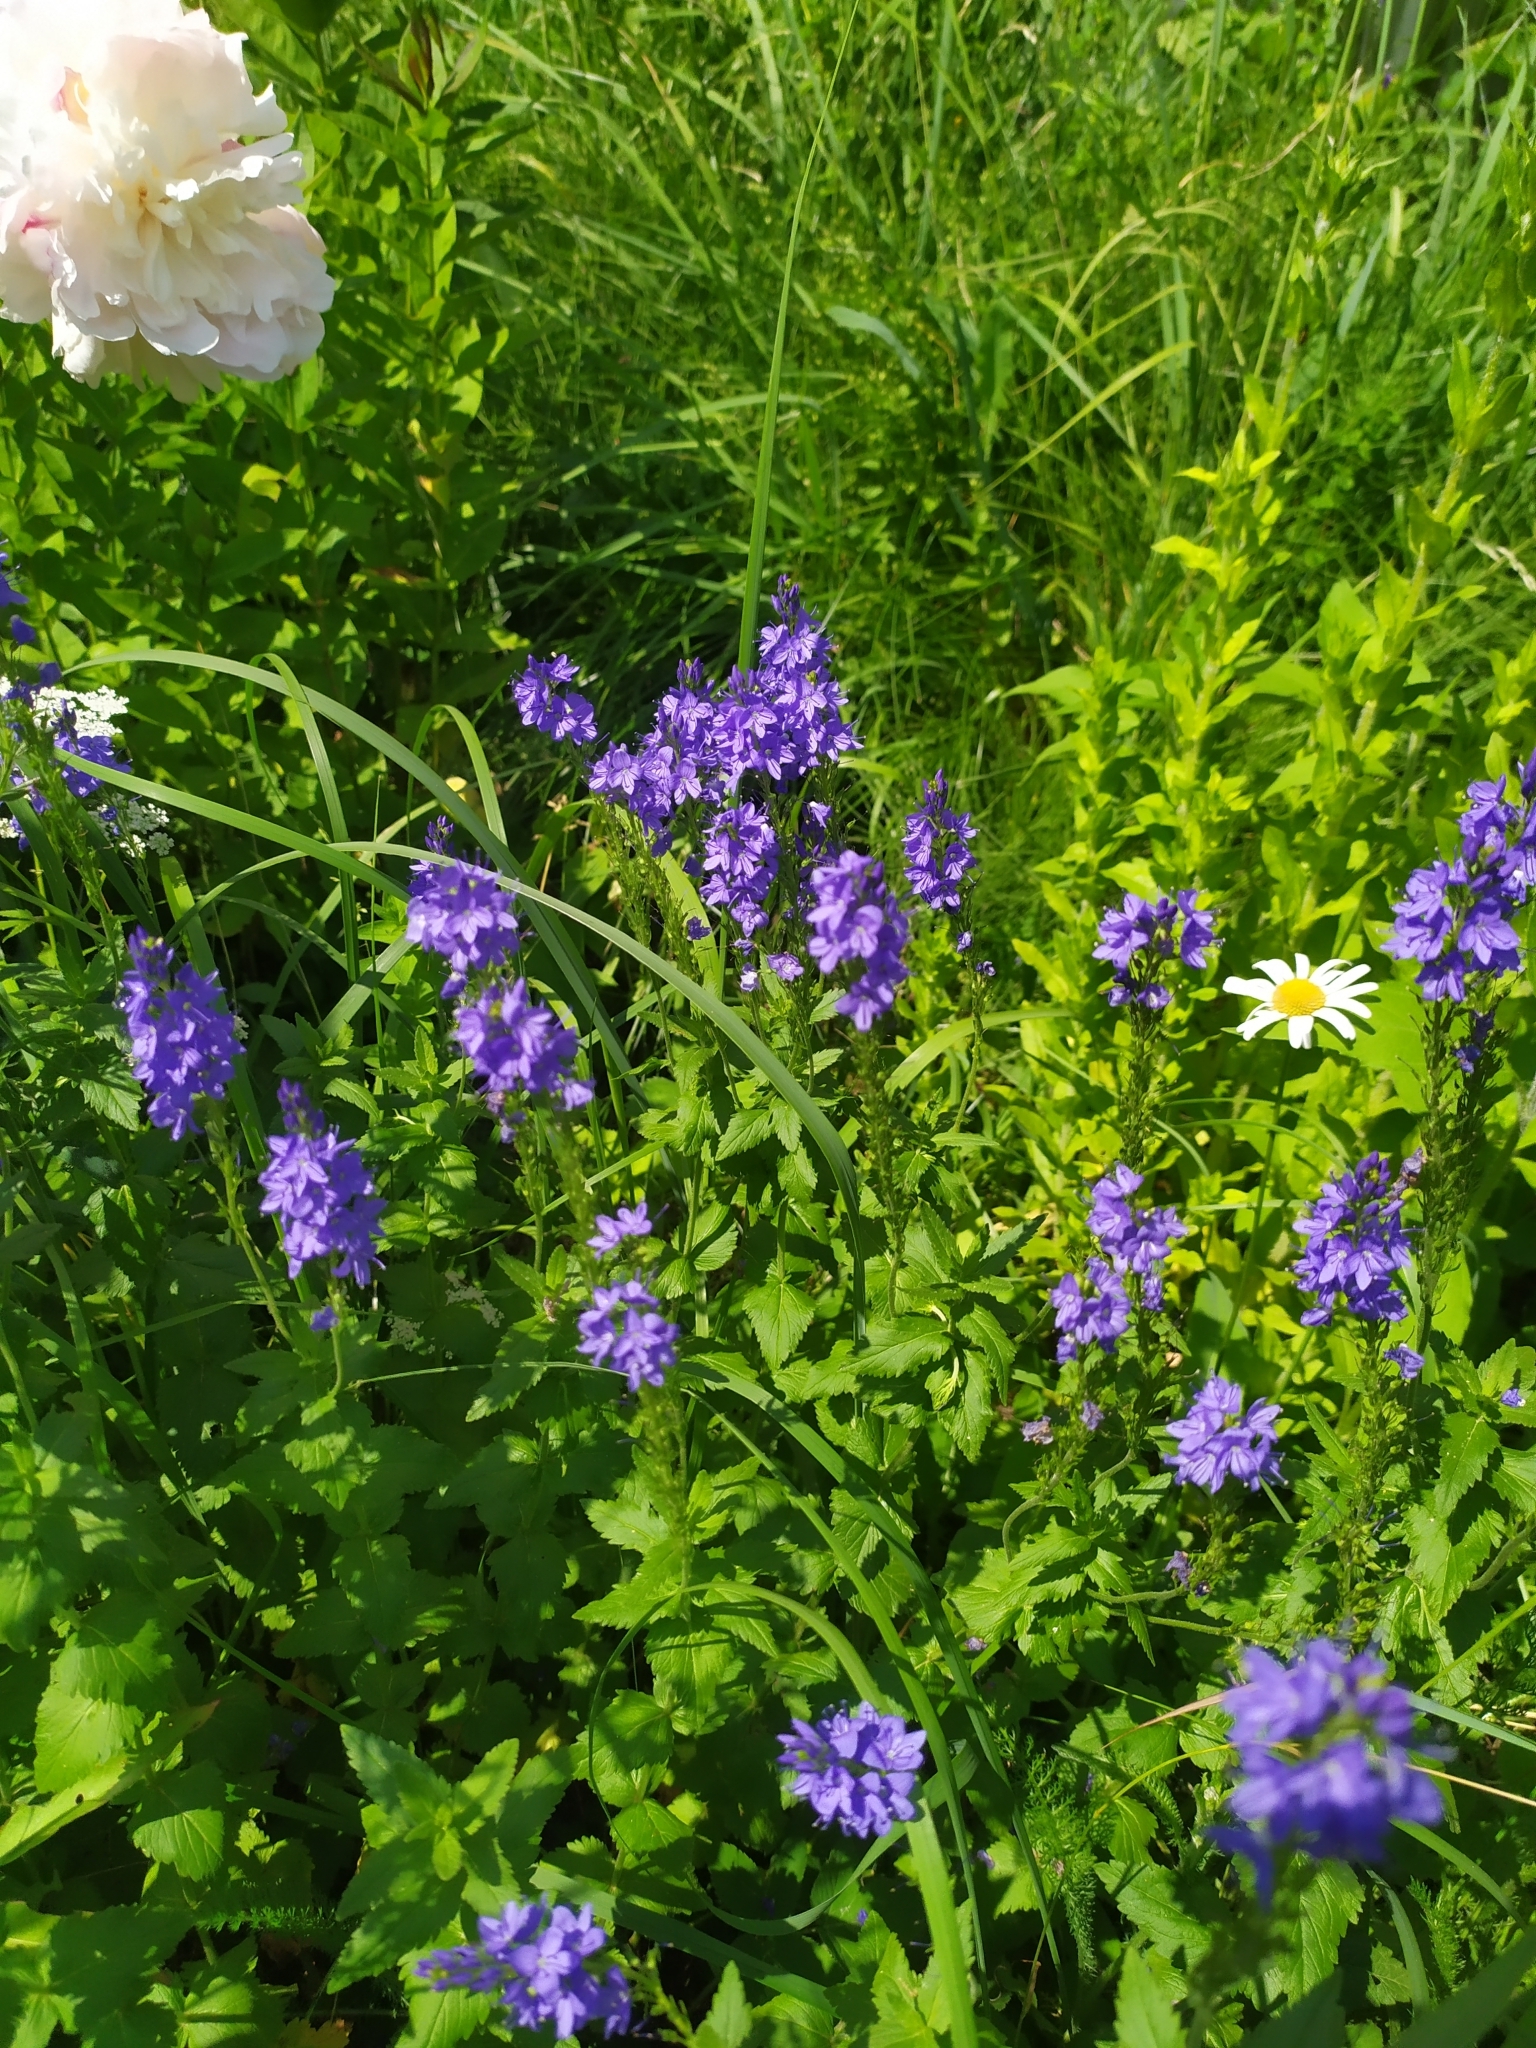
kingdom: Plantae
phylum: Tracheophyta
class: Magnoliopsida
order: Lamiales
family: Plantaginaceae
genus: Veronica
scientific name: Veronica teucrium
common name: Large speedwell
